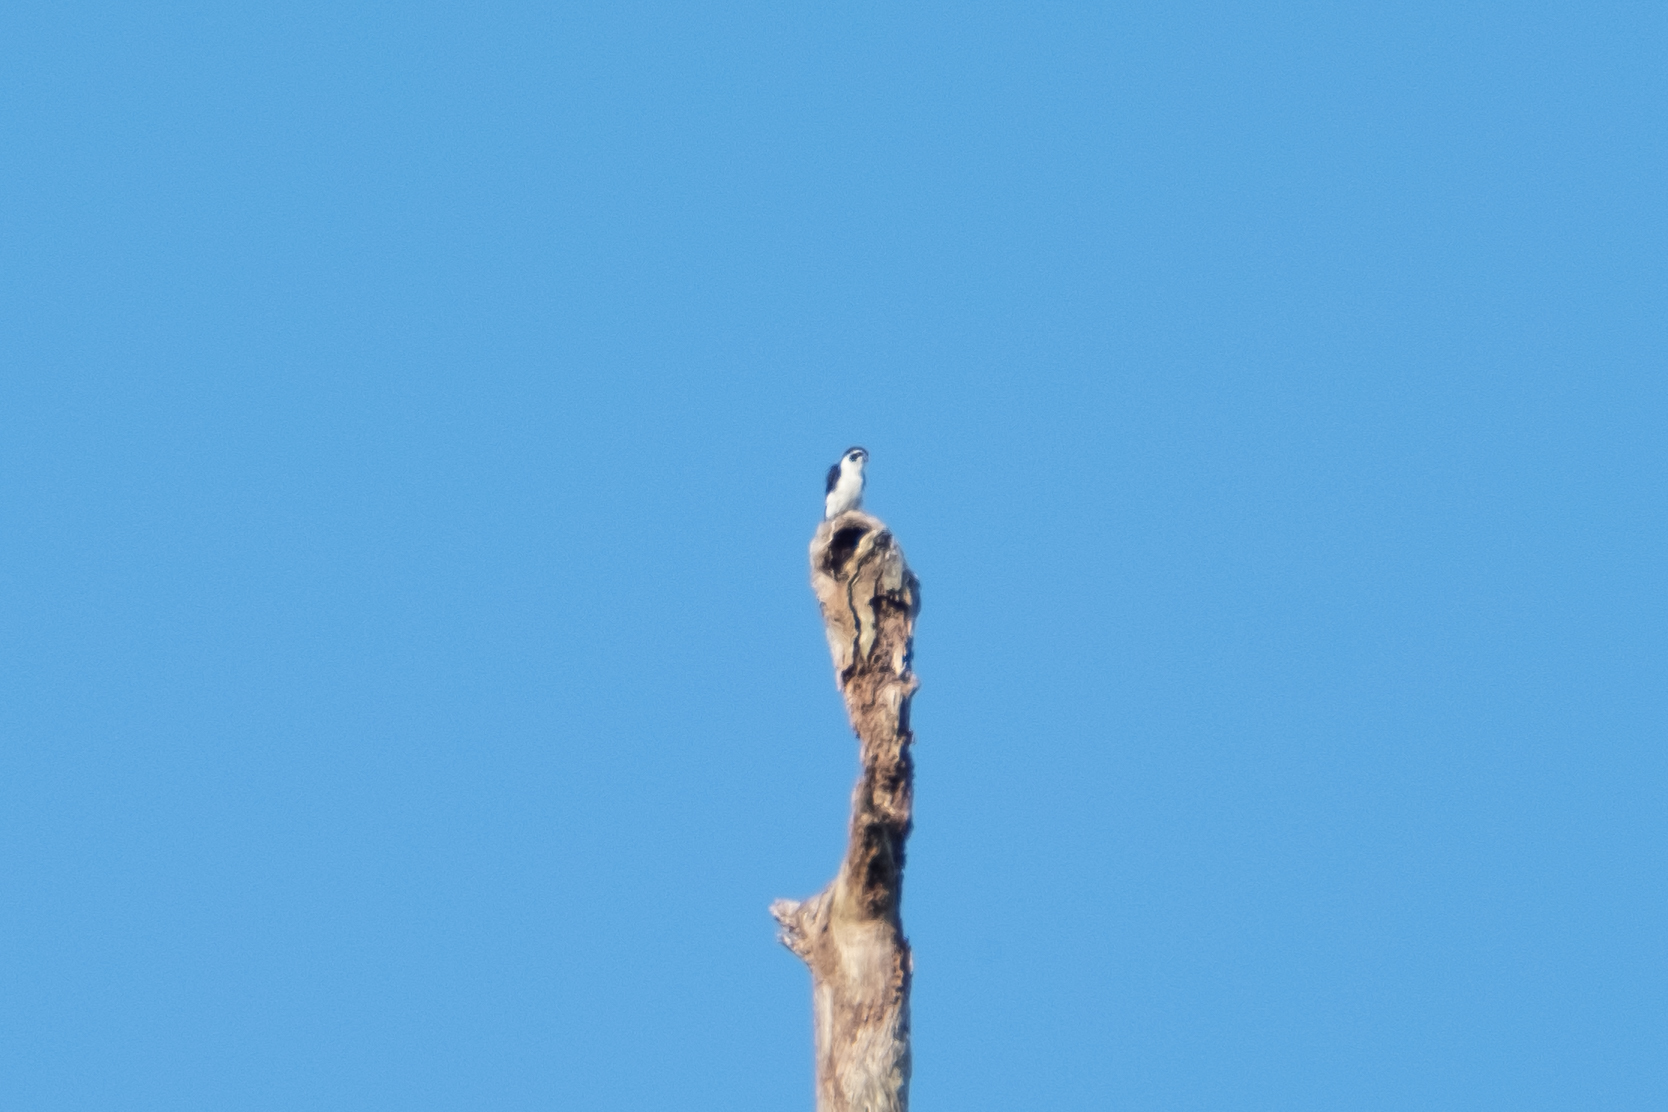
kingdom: Animalia
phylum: Chordata
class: Aves
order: Falconiformes
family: Falconidae
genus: Microhierax
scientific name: Microhierax melanoleucos
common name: Pied falconet
